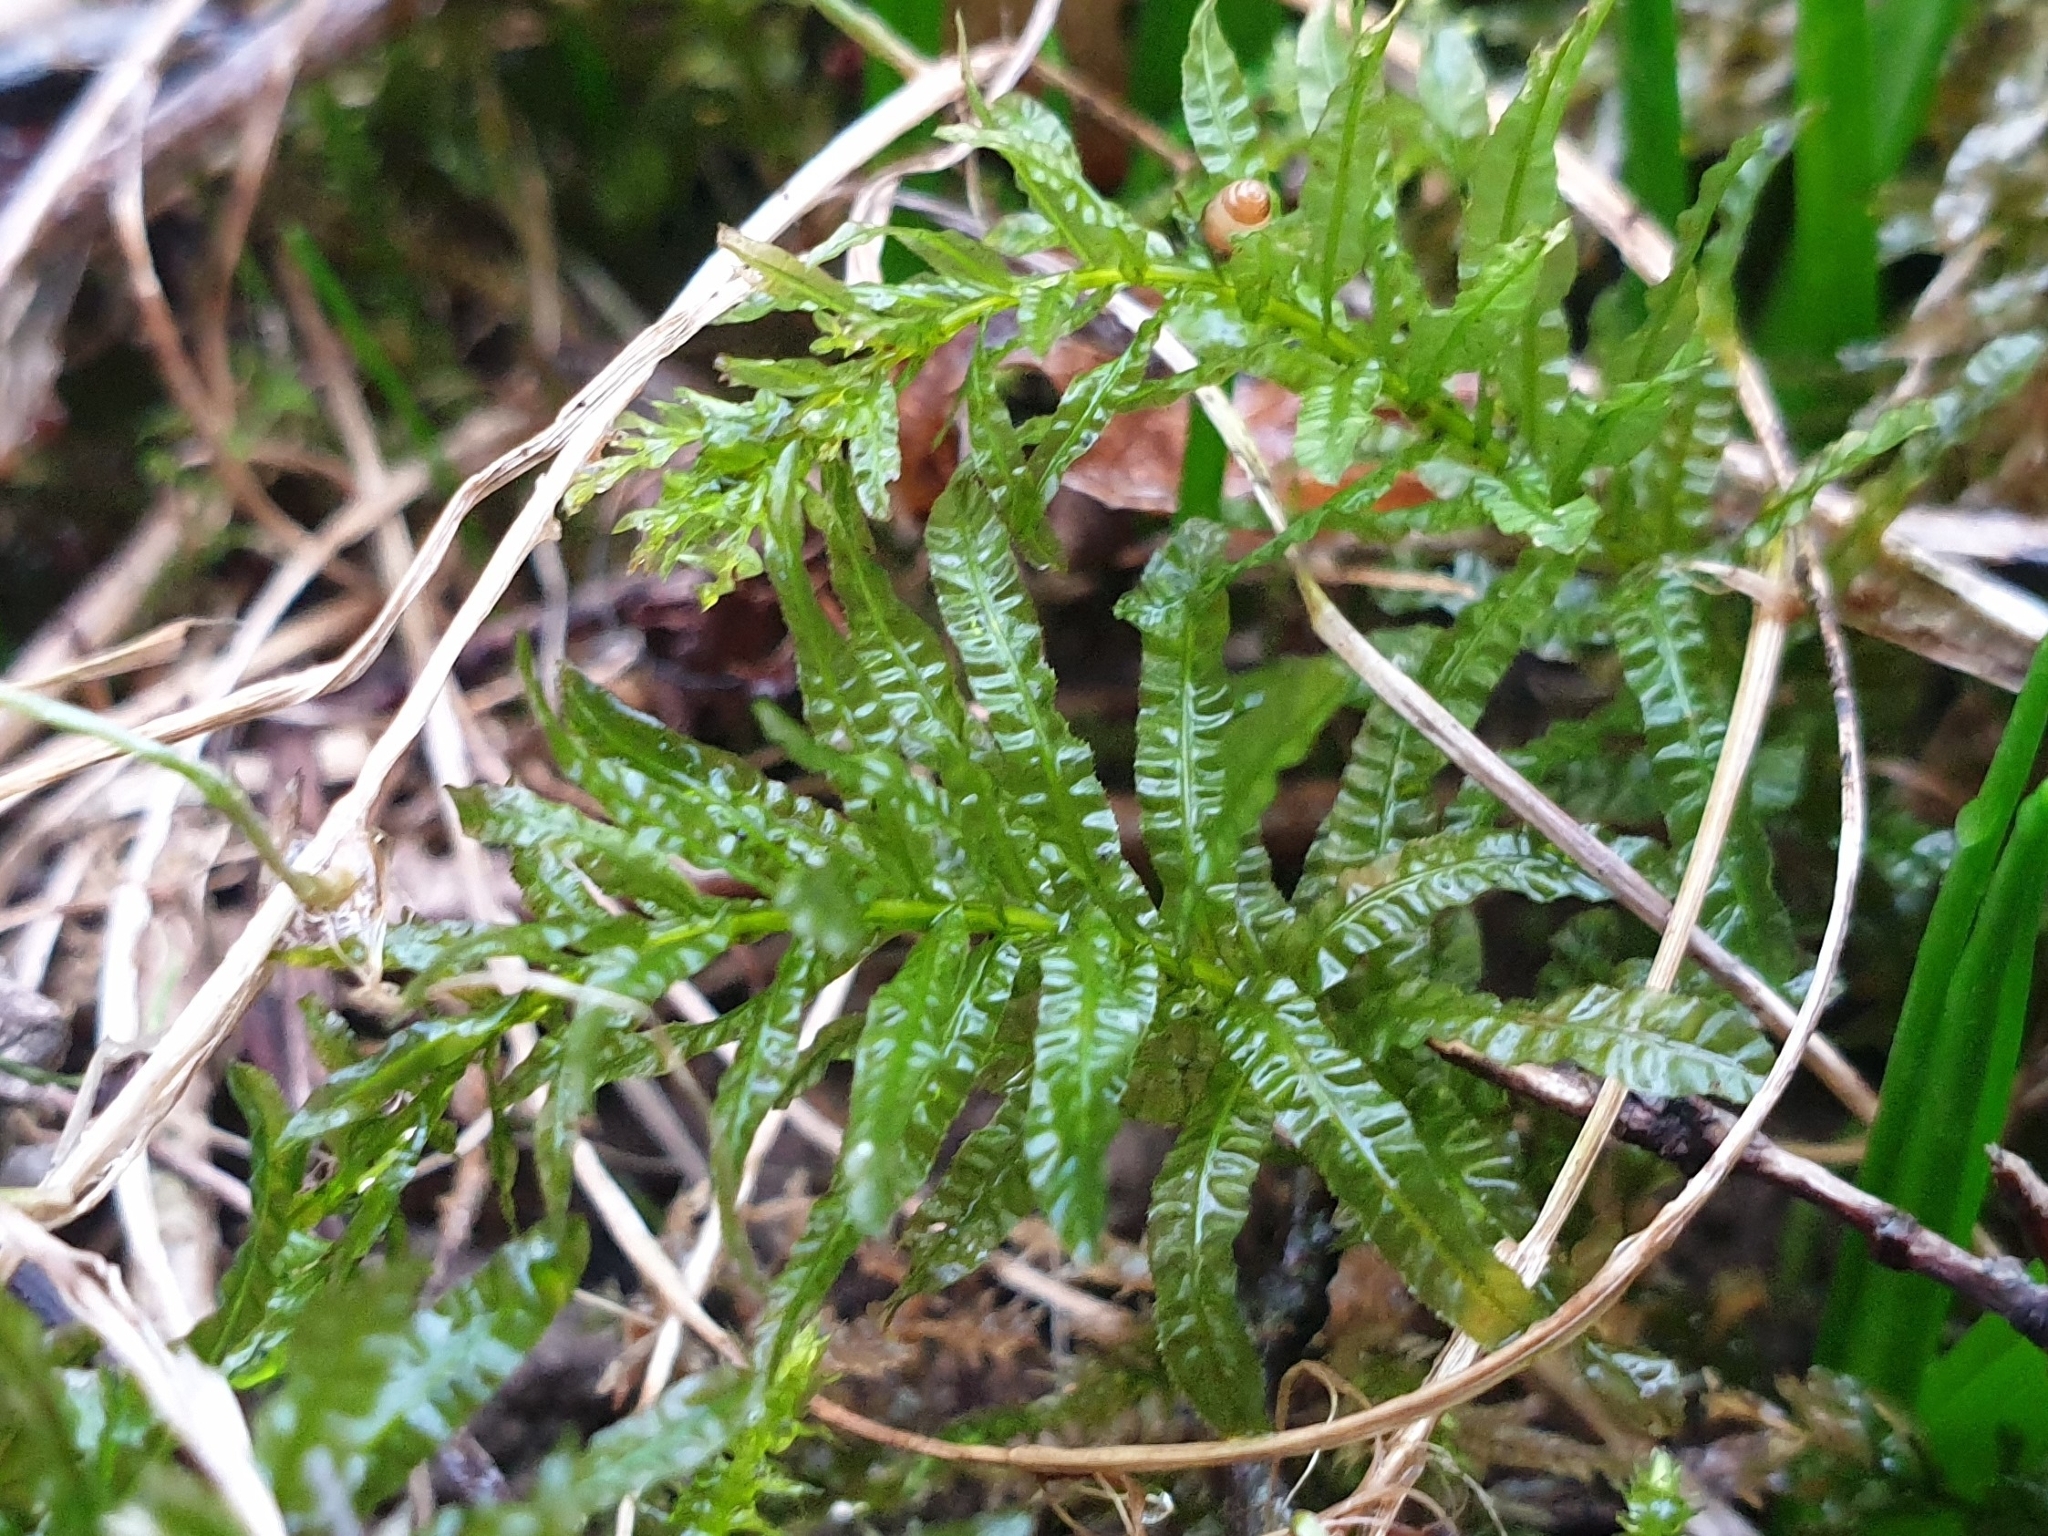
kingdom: Plantae
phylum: Bryophyta
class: Bryopsida
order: Bryales
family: Mniaceae
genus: Plagiomnium
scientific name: Plagiomnium undulatum
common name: Hart's-tongue thyme-moss
